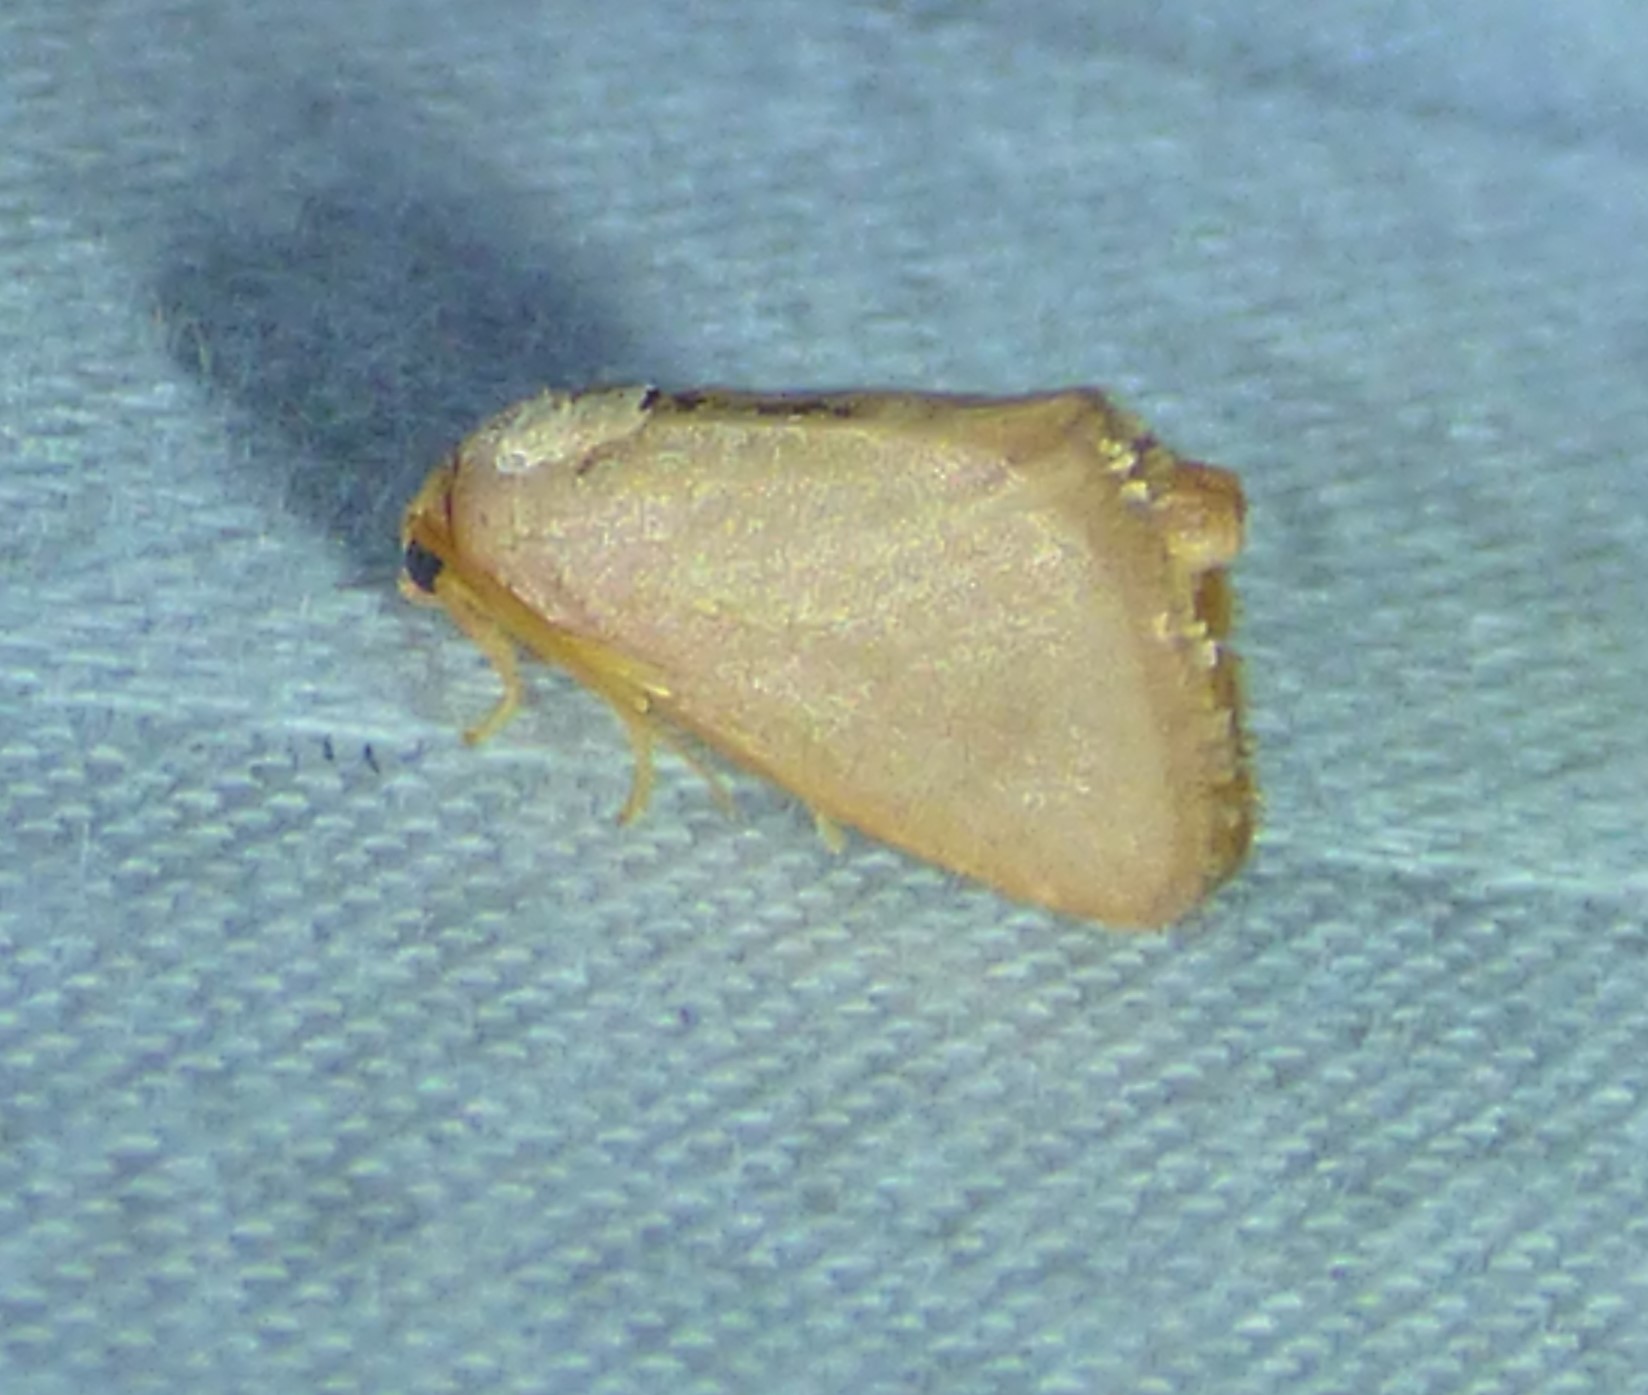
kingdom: Animalia
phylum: Arthropoda
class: Insecta
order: Lepidoptera
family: Limacodidae
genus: Tortricidia
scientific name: Tortricidia pallida
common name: Red-crossed button slug moth
